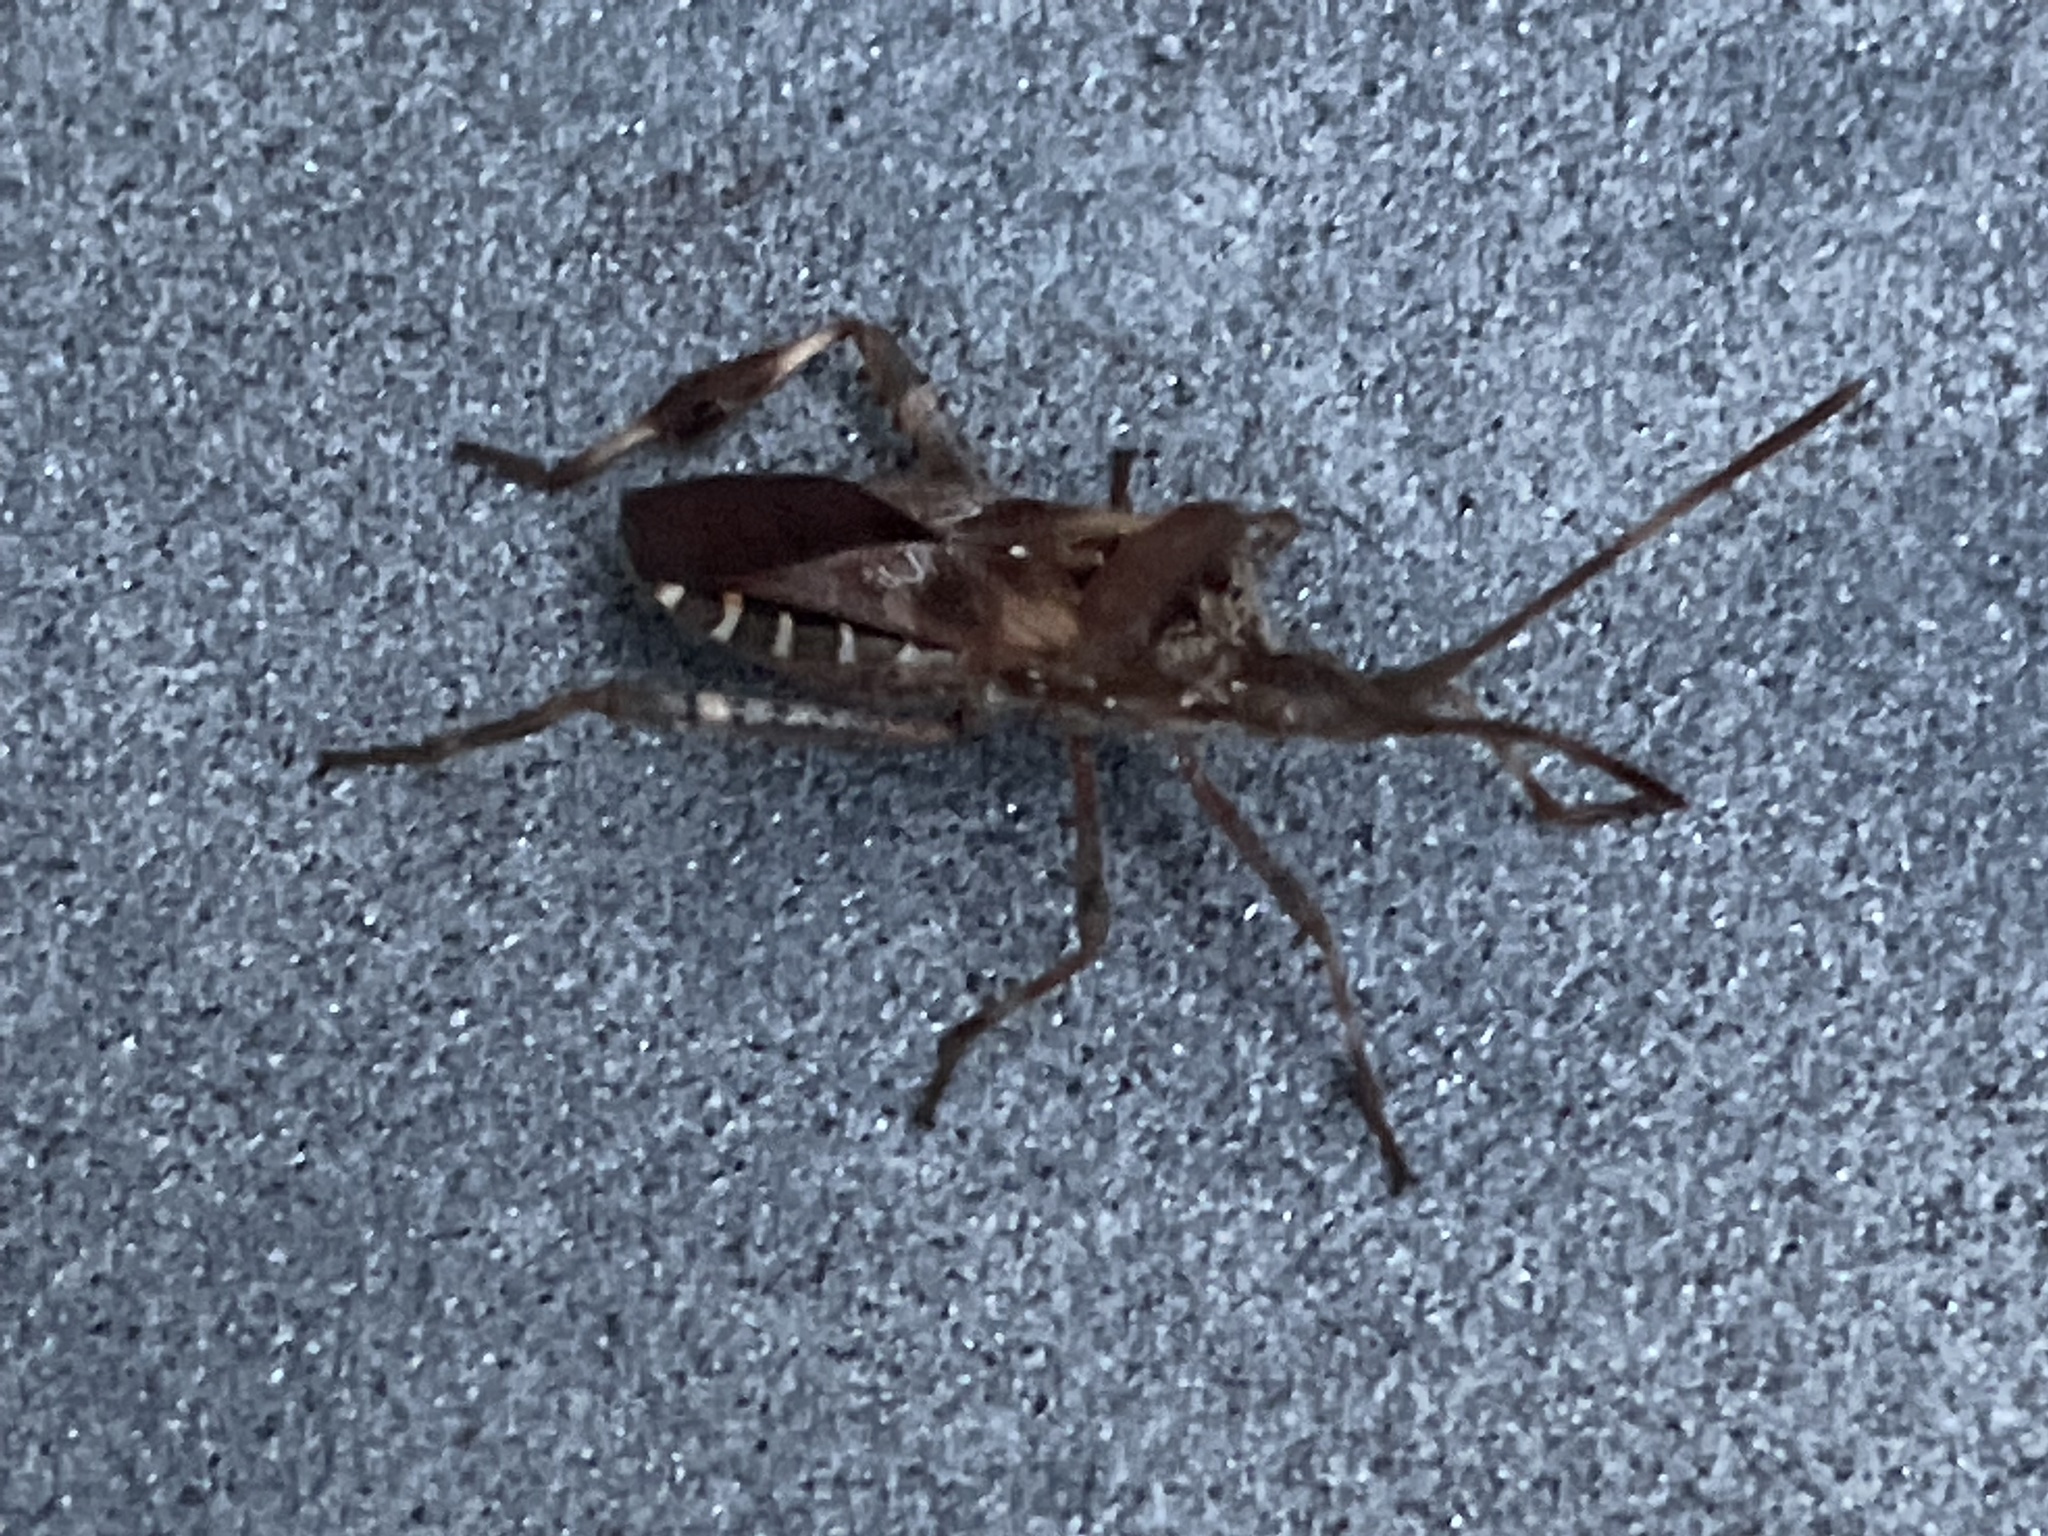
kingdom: Animalia
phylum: Arthropoda
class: Insecta
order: Hemiptera
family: Coreidae
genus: Leptoglossus
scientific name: Leptoglossus occidentalis
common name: Western conifer-seed bug
